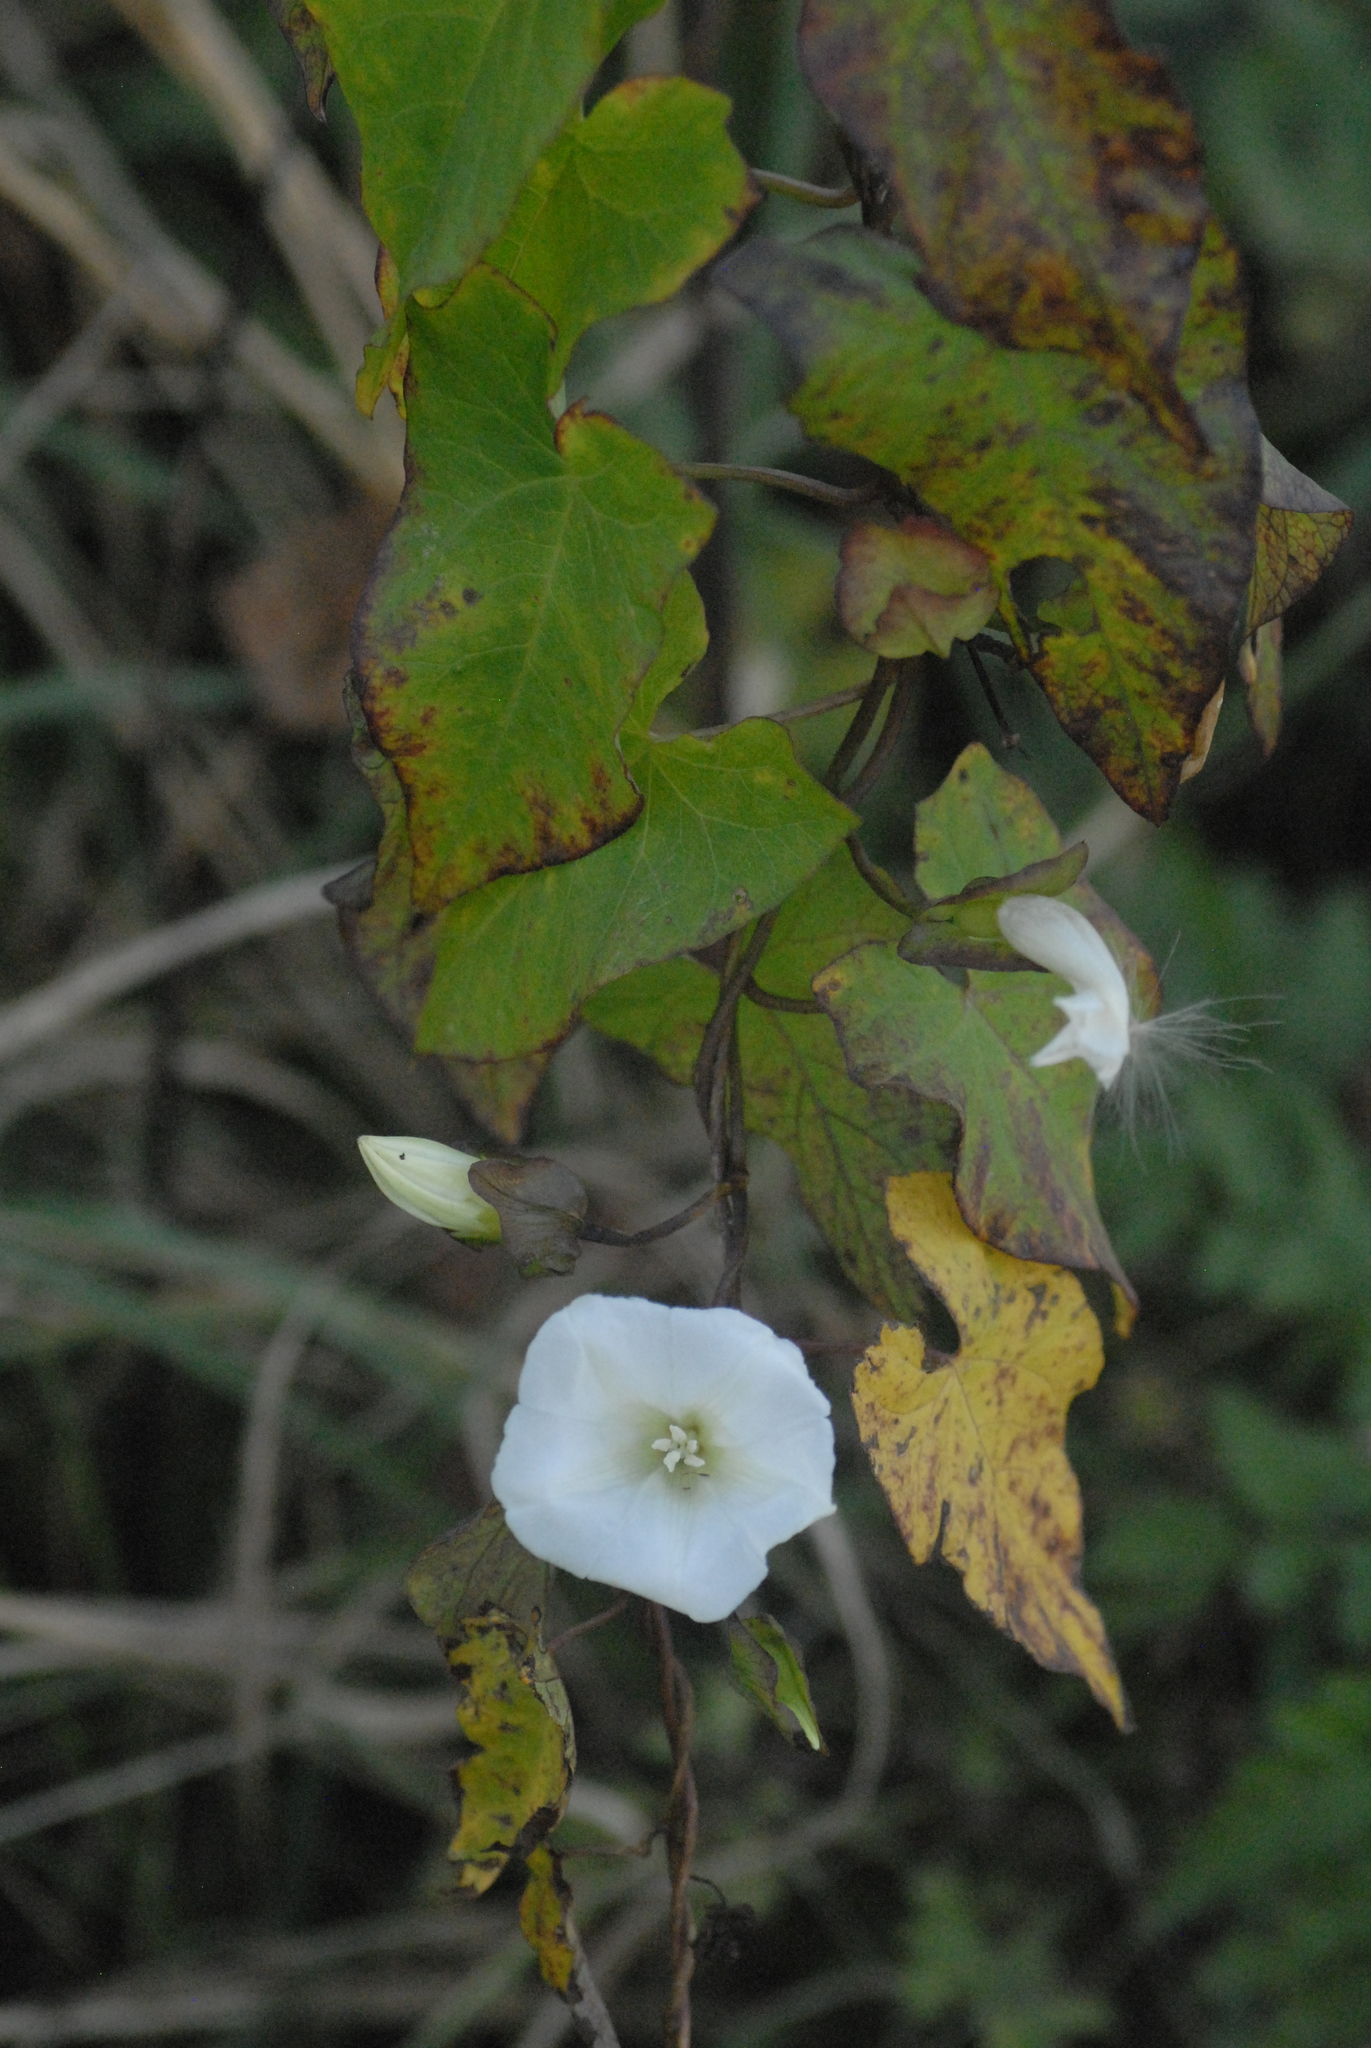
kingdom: Plantae
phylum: Tracheophyta
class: Magnoliopsida
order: Solanales
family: Convolvulaceae
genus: Calystegia
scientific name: Calystegia sepium
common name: Hedge bindweed
